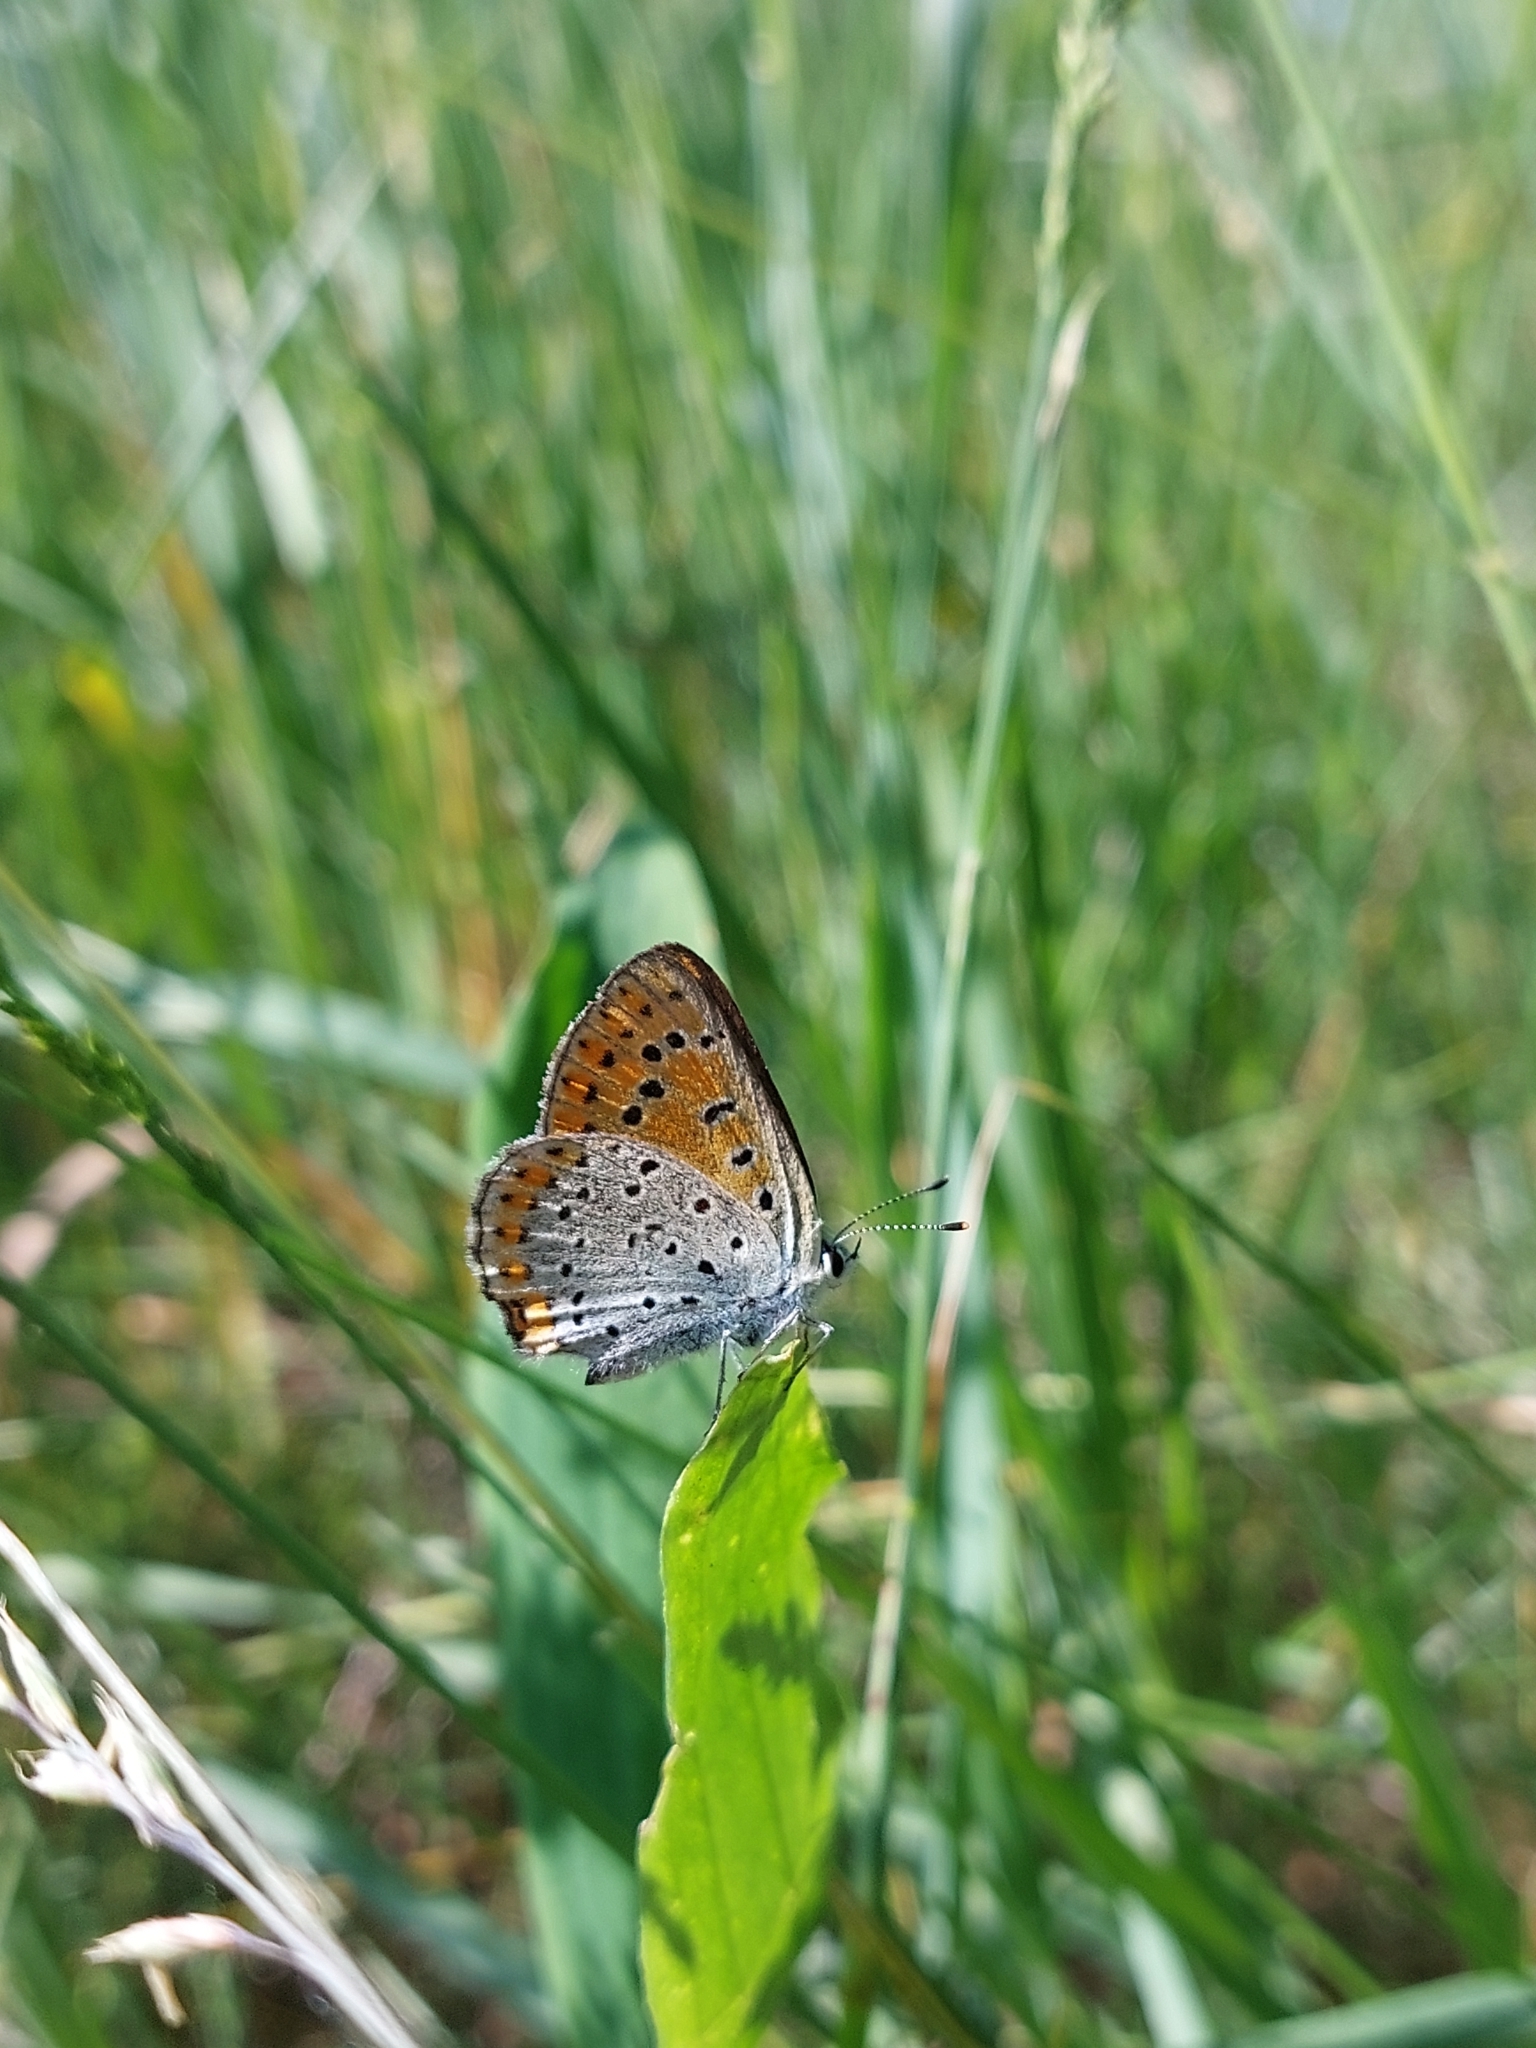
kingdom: Animalia
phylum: Arthropoda
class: Insecta
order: Lepidoptera
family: Lycaenidae
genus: Loweia
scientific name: Loweia tityrus
